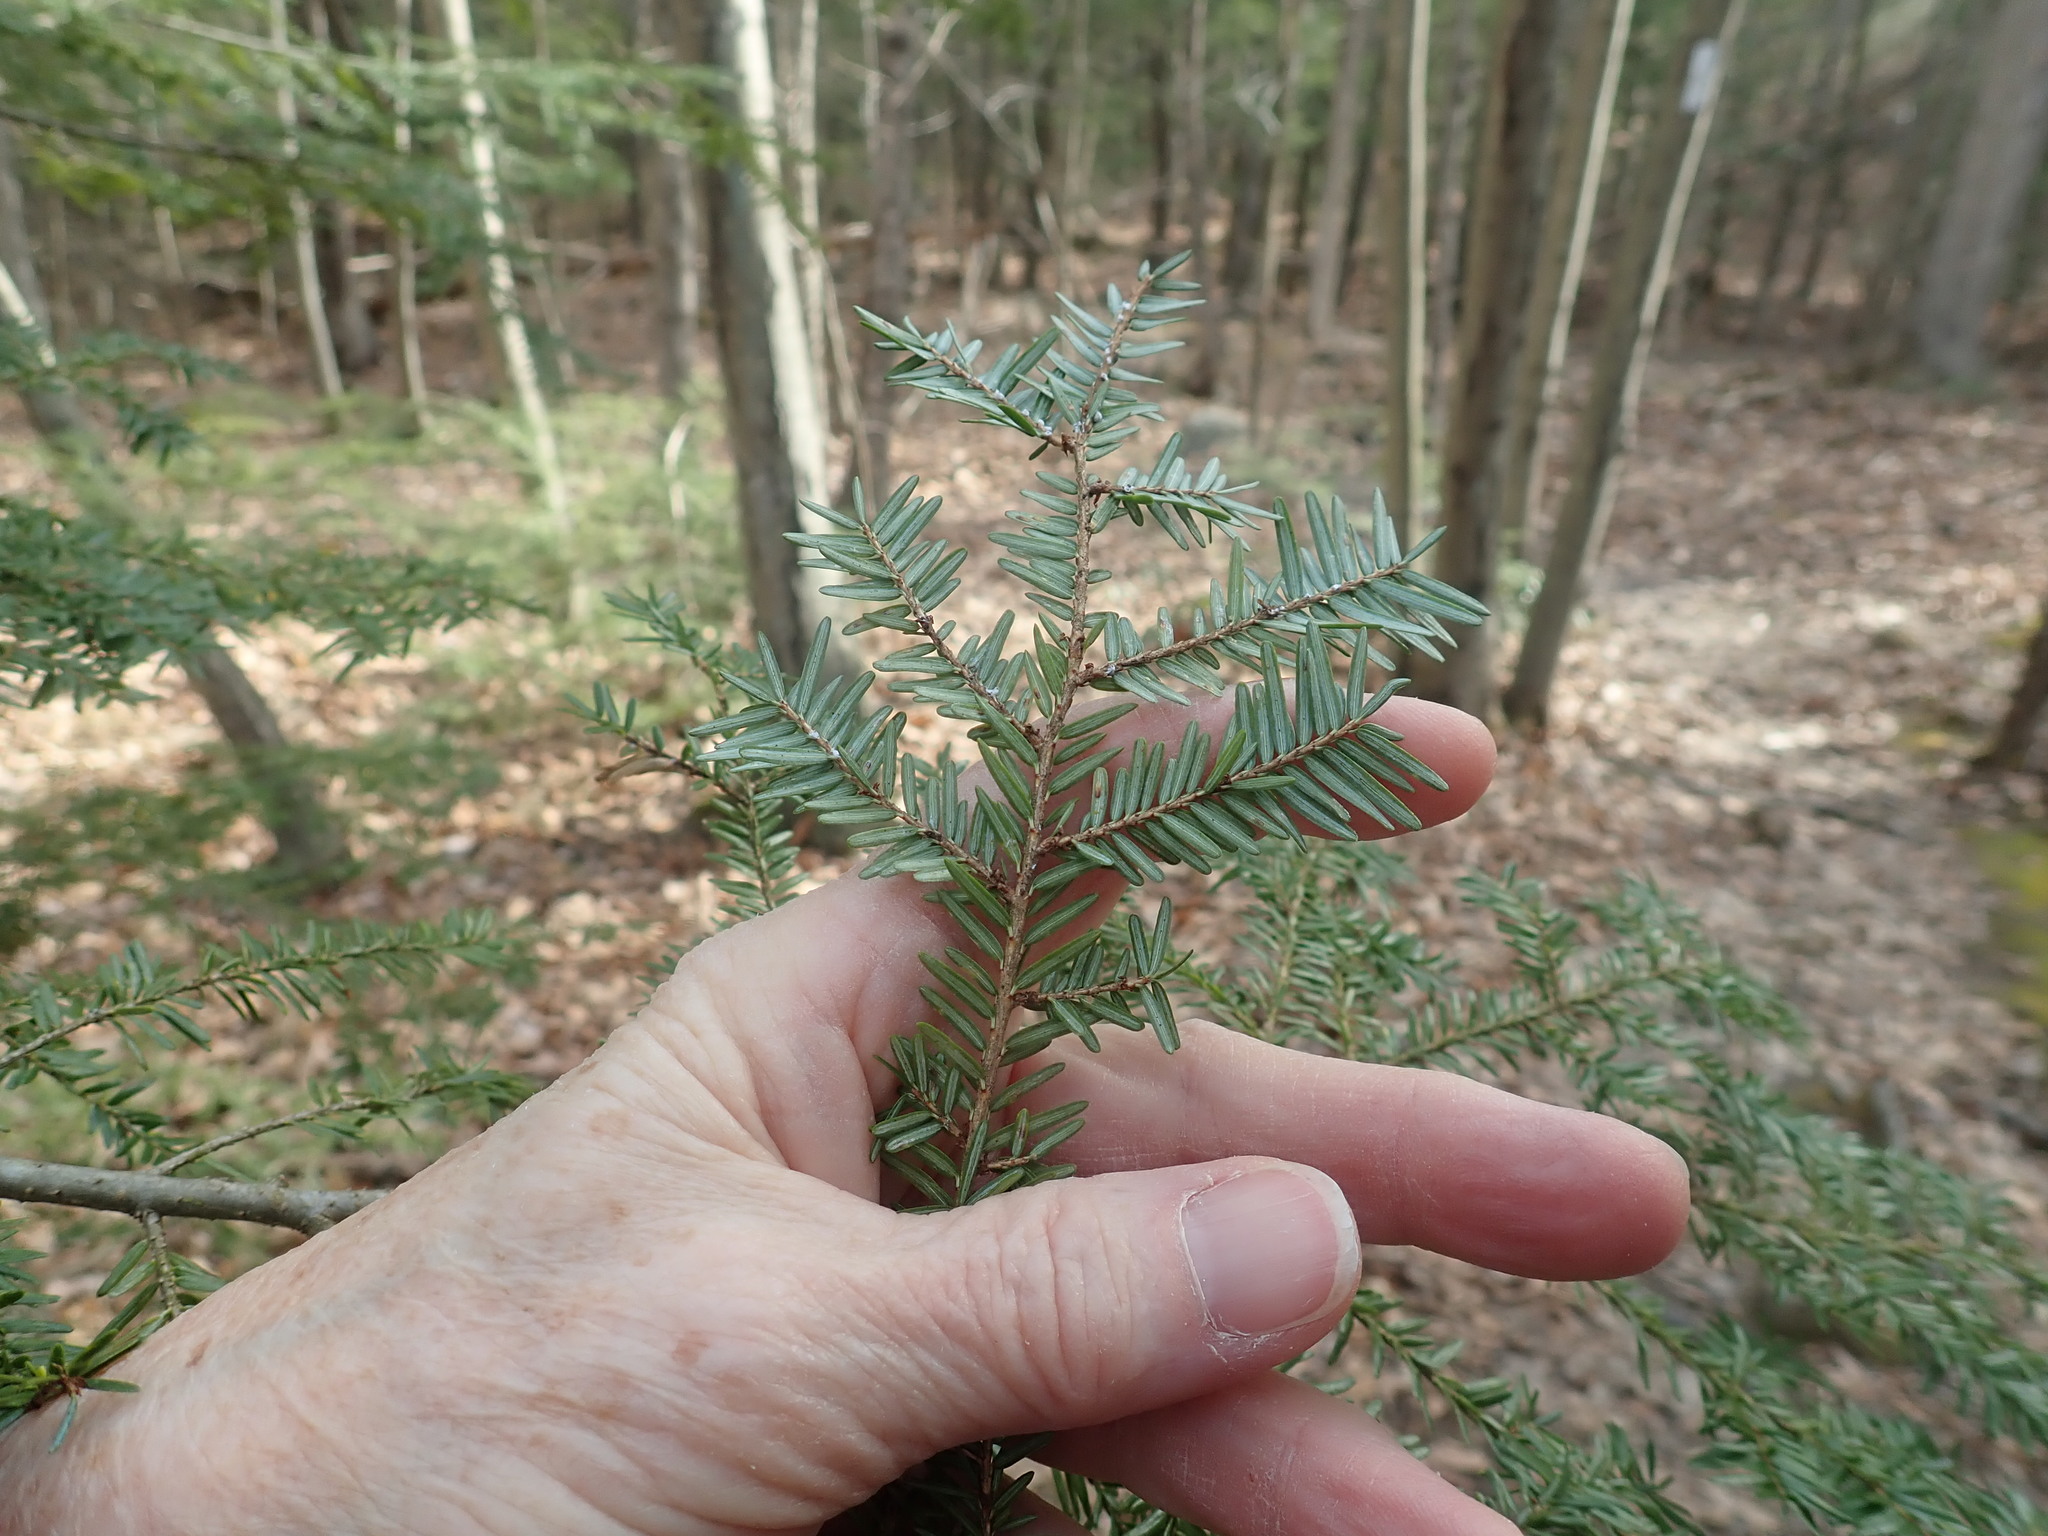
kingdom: Plantae
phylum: Tracheophyta
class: Pinopsida
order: Pinales
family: Pinaceae
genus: Tsuga
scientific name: Tsuga canadensis
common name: Eastern hemlock
